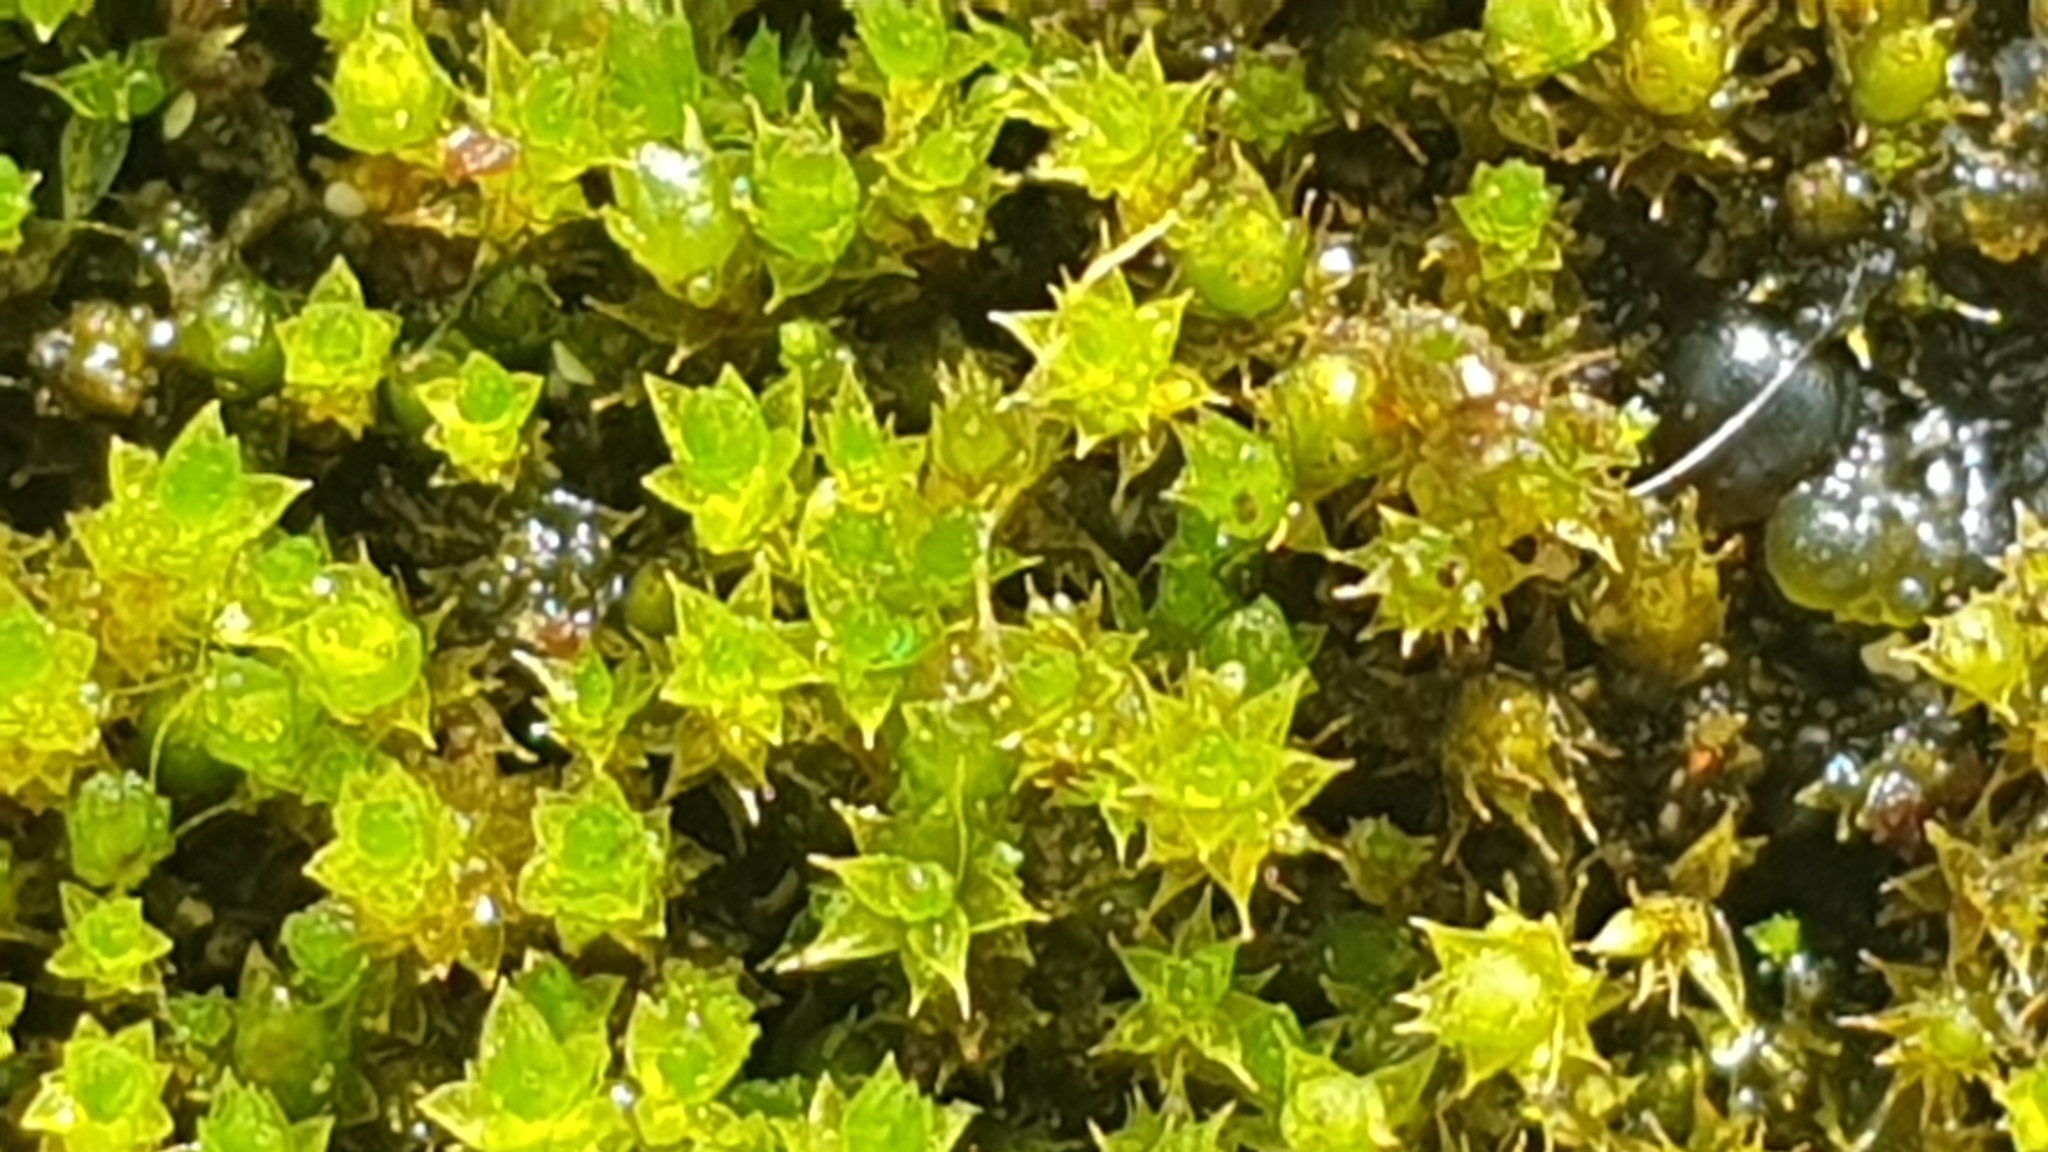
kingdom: Plantae
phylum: Bryophyta
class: Bryopsida
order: Bryales
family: Bryaceae
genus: Imbribryum
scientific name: Imbribryum laevigatum
